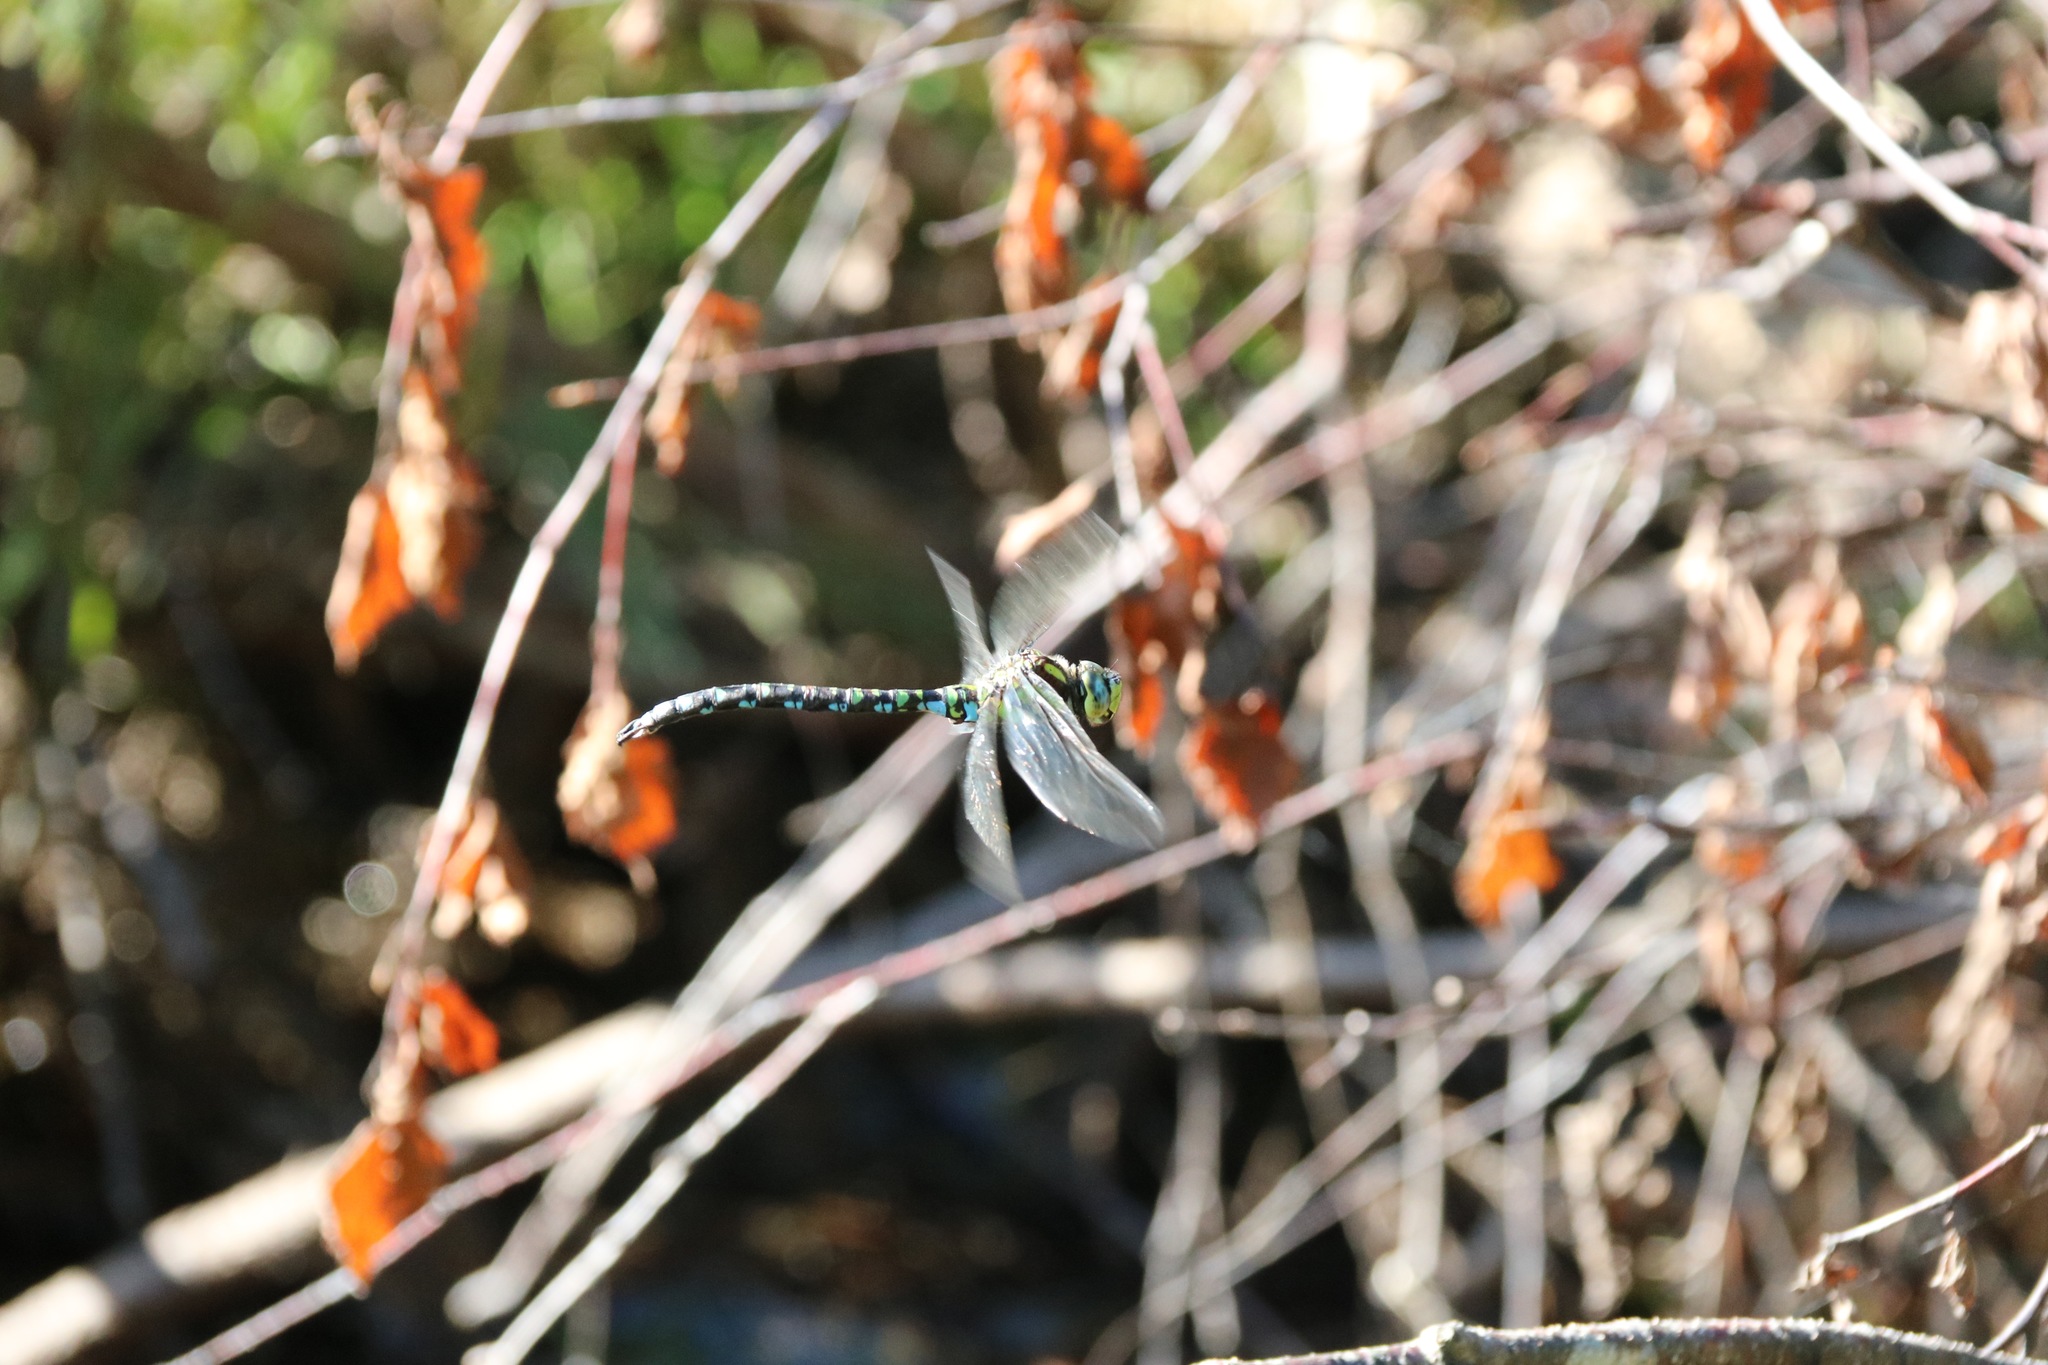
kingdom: Animalia
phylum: Arthropoda
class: Insecta
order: Odonata
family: Aeshnidae
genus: Aeshna
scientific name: Aeshna cyanea
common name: Southern hawker
